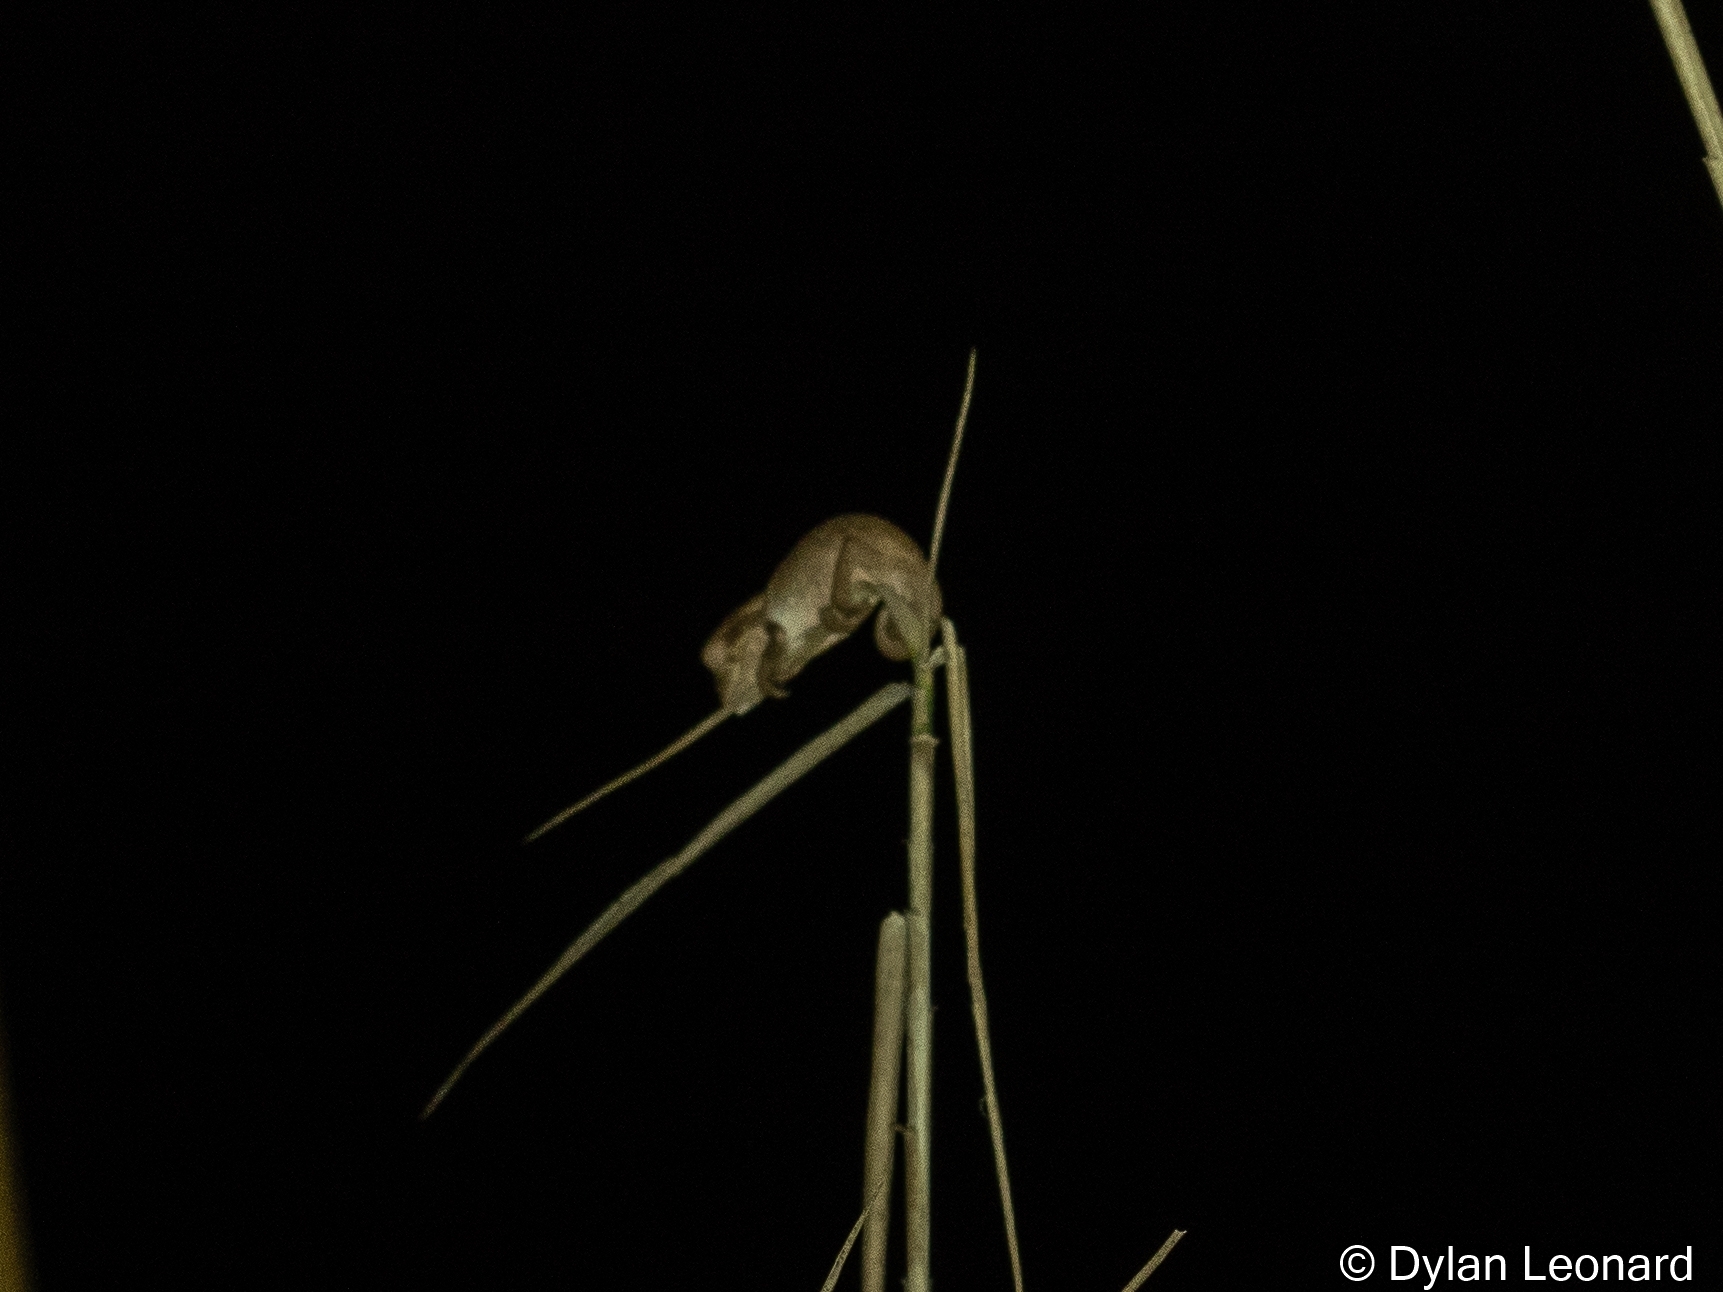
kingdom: Animalia
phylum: Chordata
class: Squamata
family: Chamaeleonidae
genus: Bradypodion
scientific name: Bradypodion melanocephalum
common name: Black-headed dwarf chameleon
